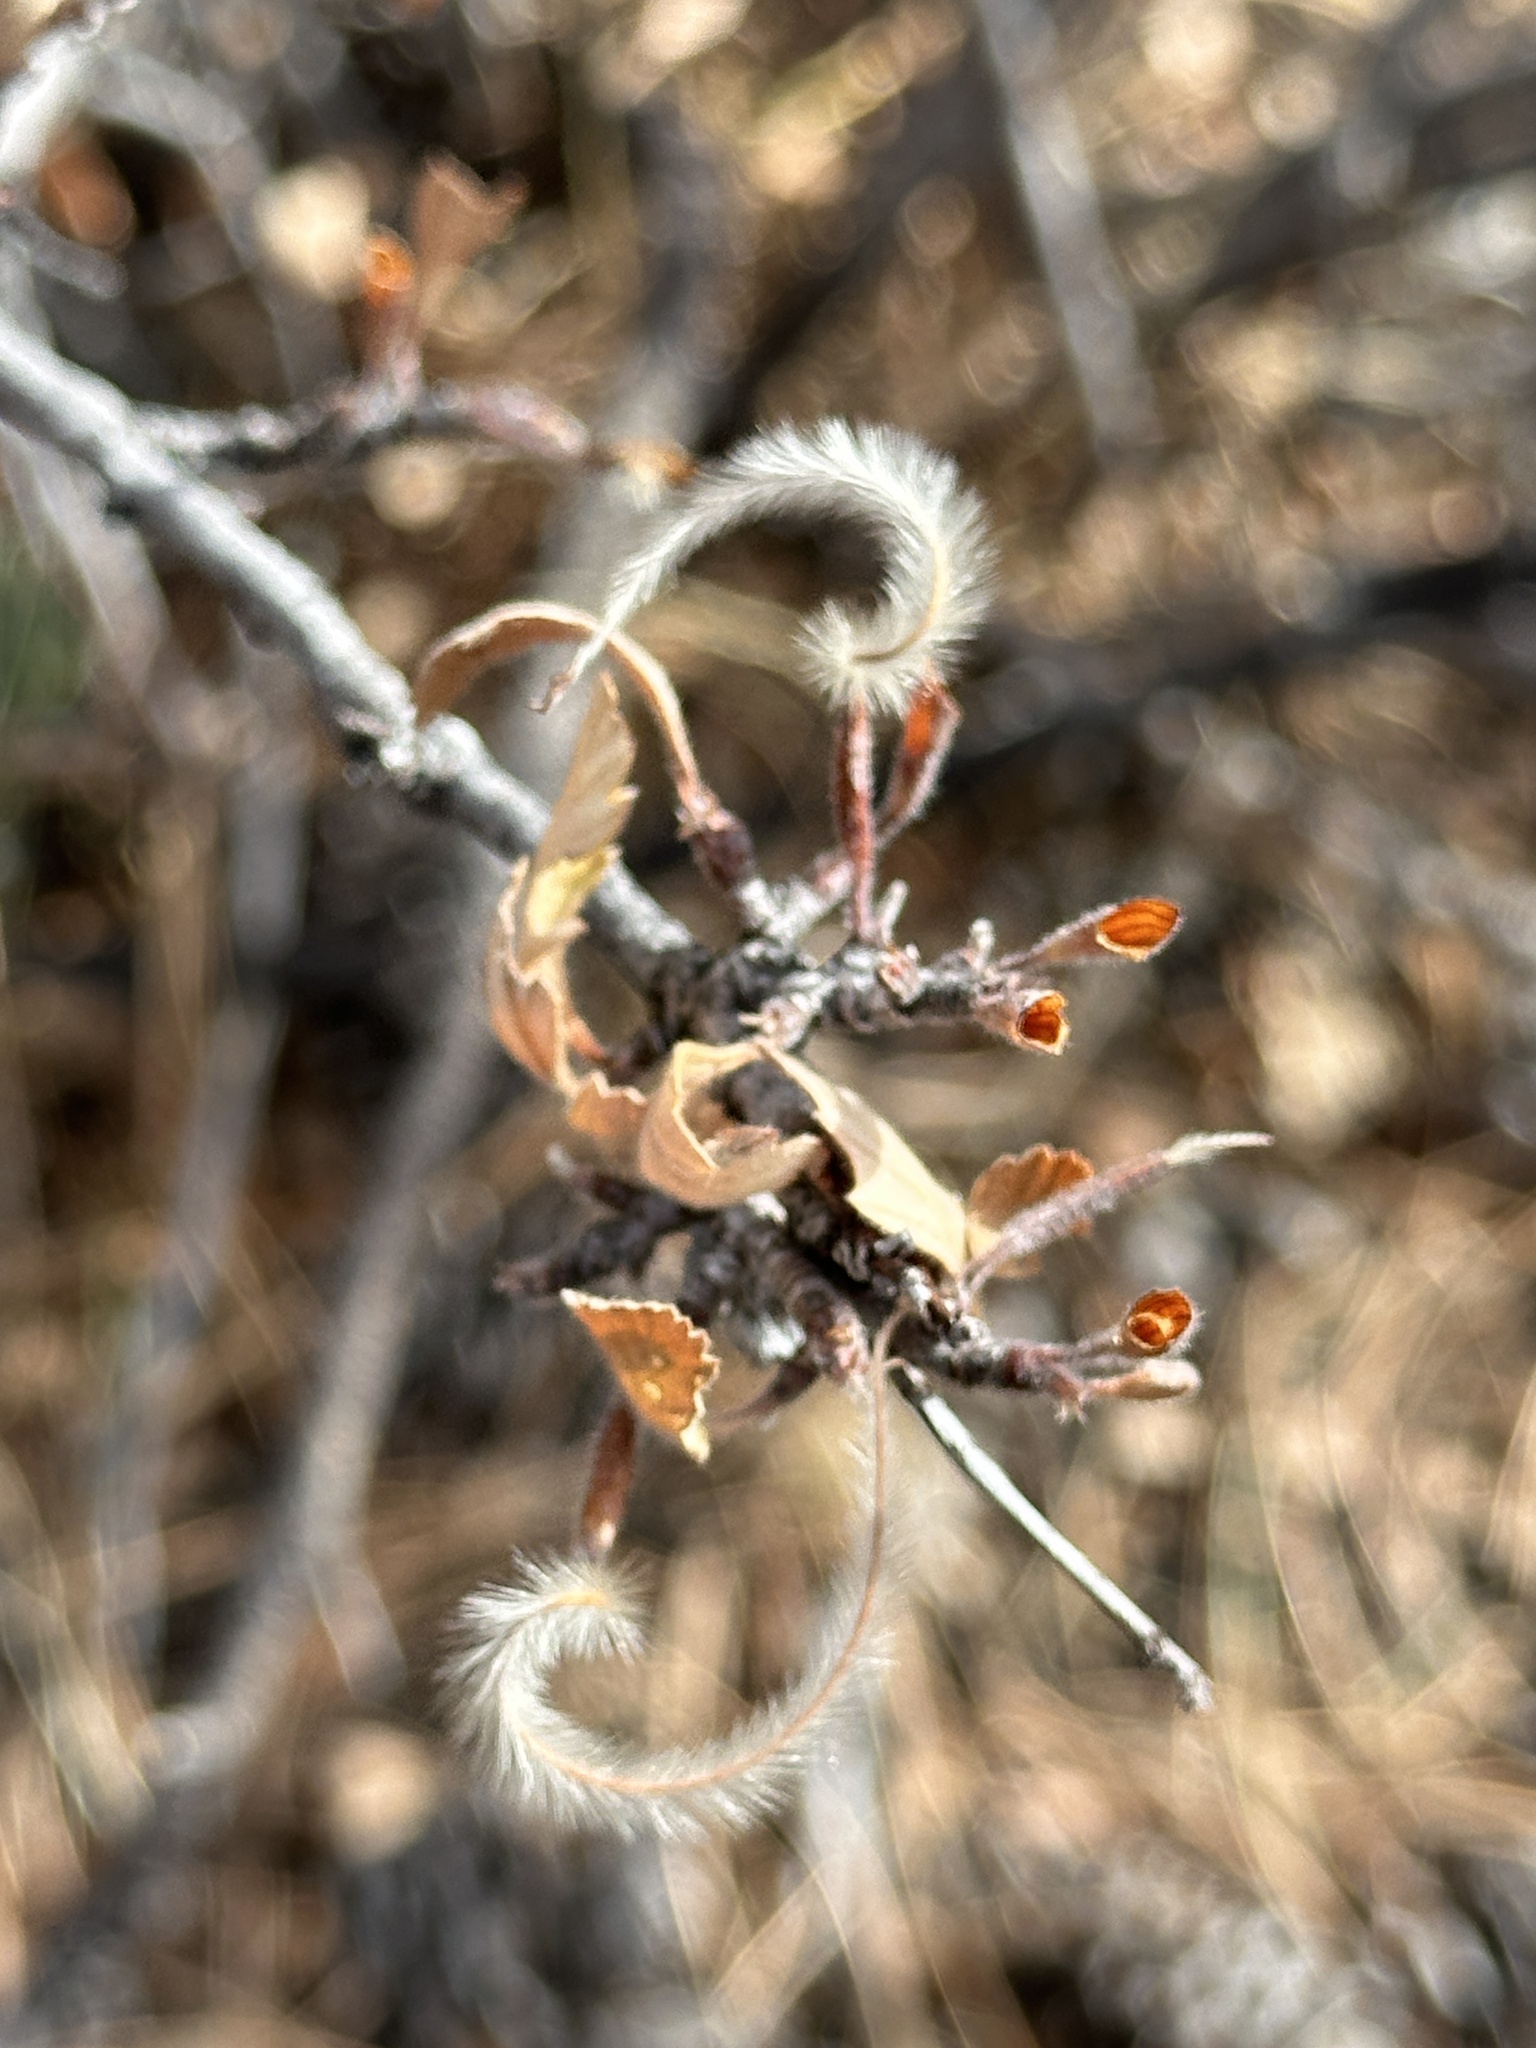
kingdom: Plantae
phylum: Tracheophyta
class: Magnoliopsida
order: Rosales
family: Rosaceae
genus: Cercocarpus
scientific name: Cercocarpus montanus
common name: Alder-leaf cercocarpus
